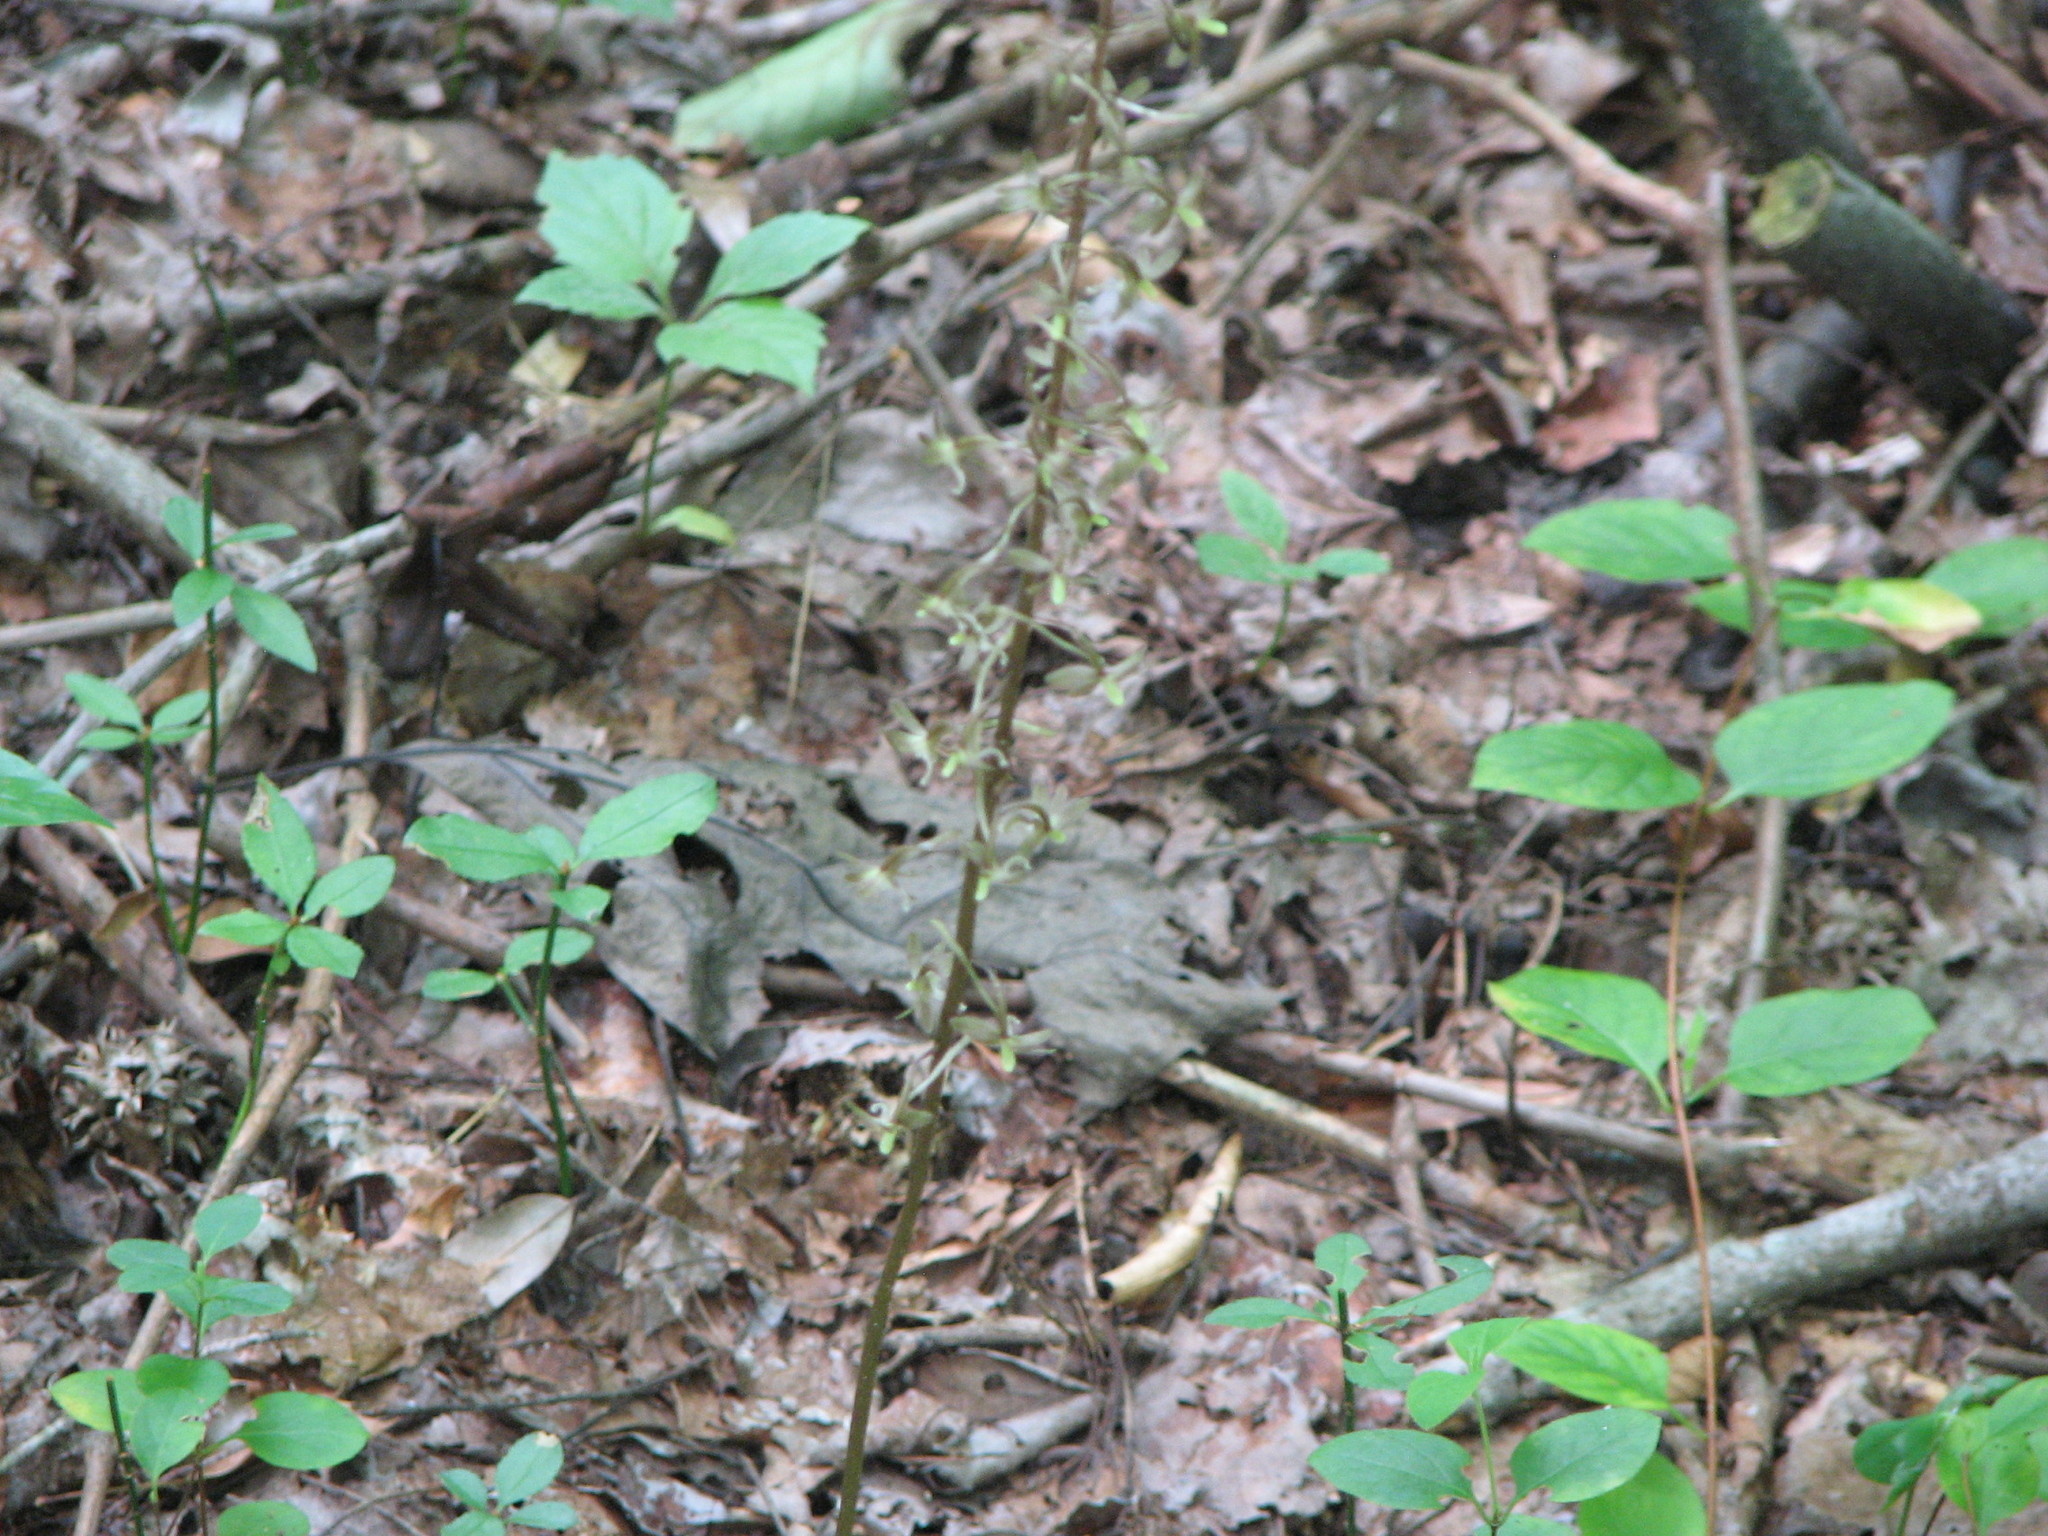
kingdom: Plantae
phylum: Tracheophyta
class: Liliopsida
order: Asparagales
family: Orchidaceae
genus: Tipularia
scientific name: Tipularia discolor
